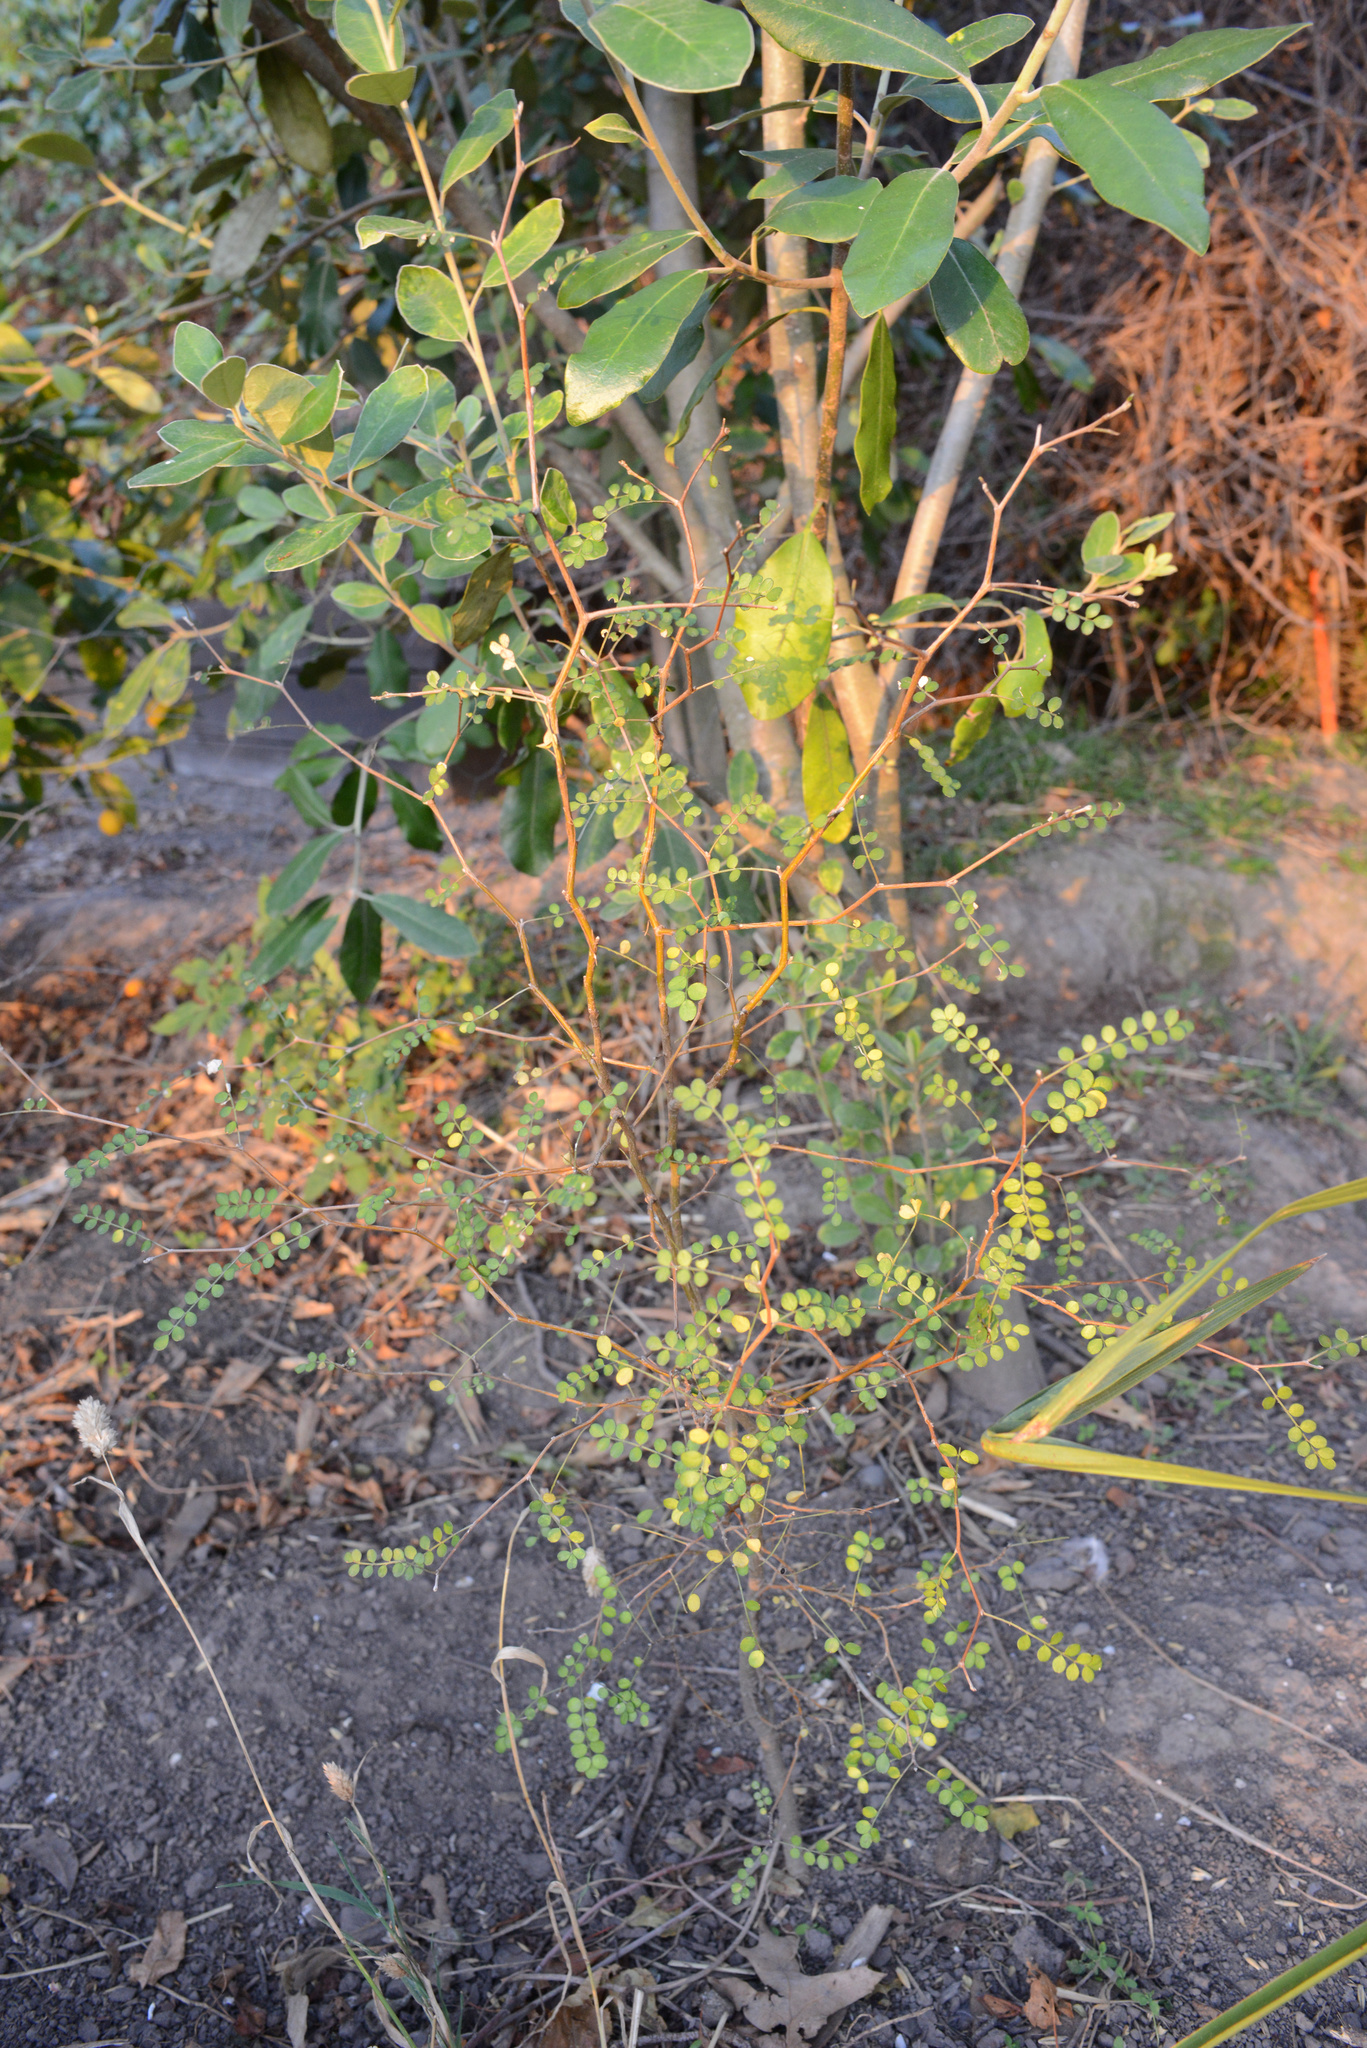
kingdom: Plantae
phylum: Tracheophyta
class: Magnoliopsida
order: Fabales
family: Fabaceae
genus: Sophora
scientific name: Sophora microphylla
